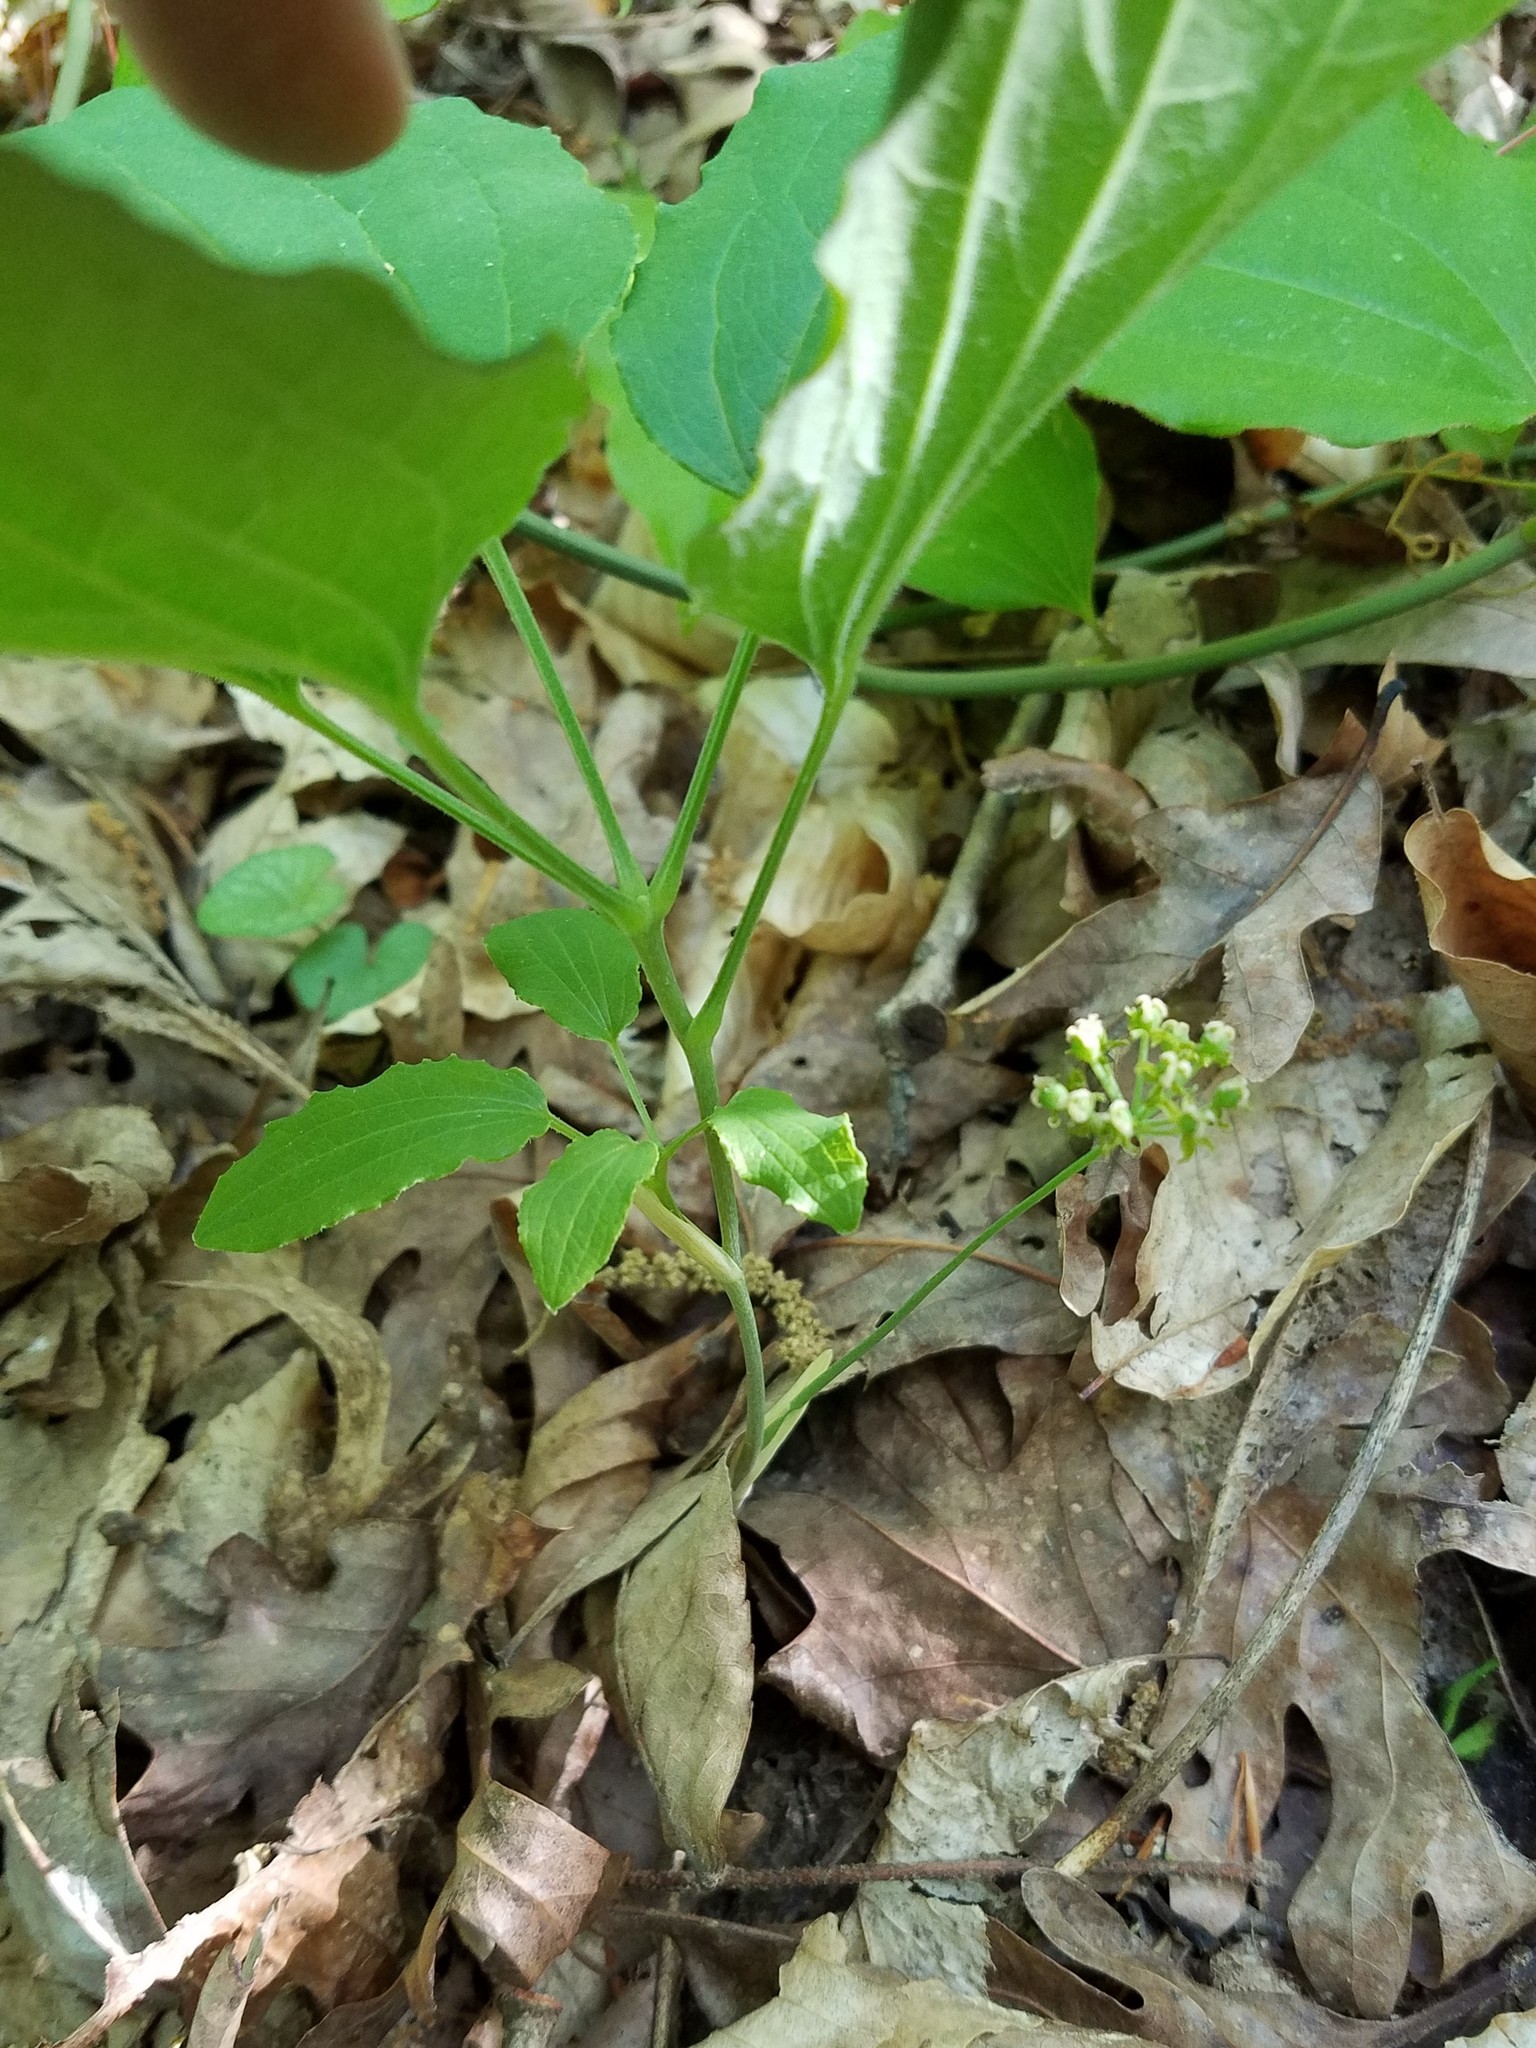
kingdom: Plantae
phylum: Tracheophyta
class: Liliopsida
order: Liliales
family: Smilacaceae
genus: Smilax
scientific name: Smilax hugeri
